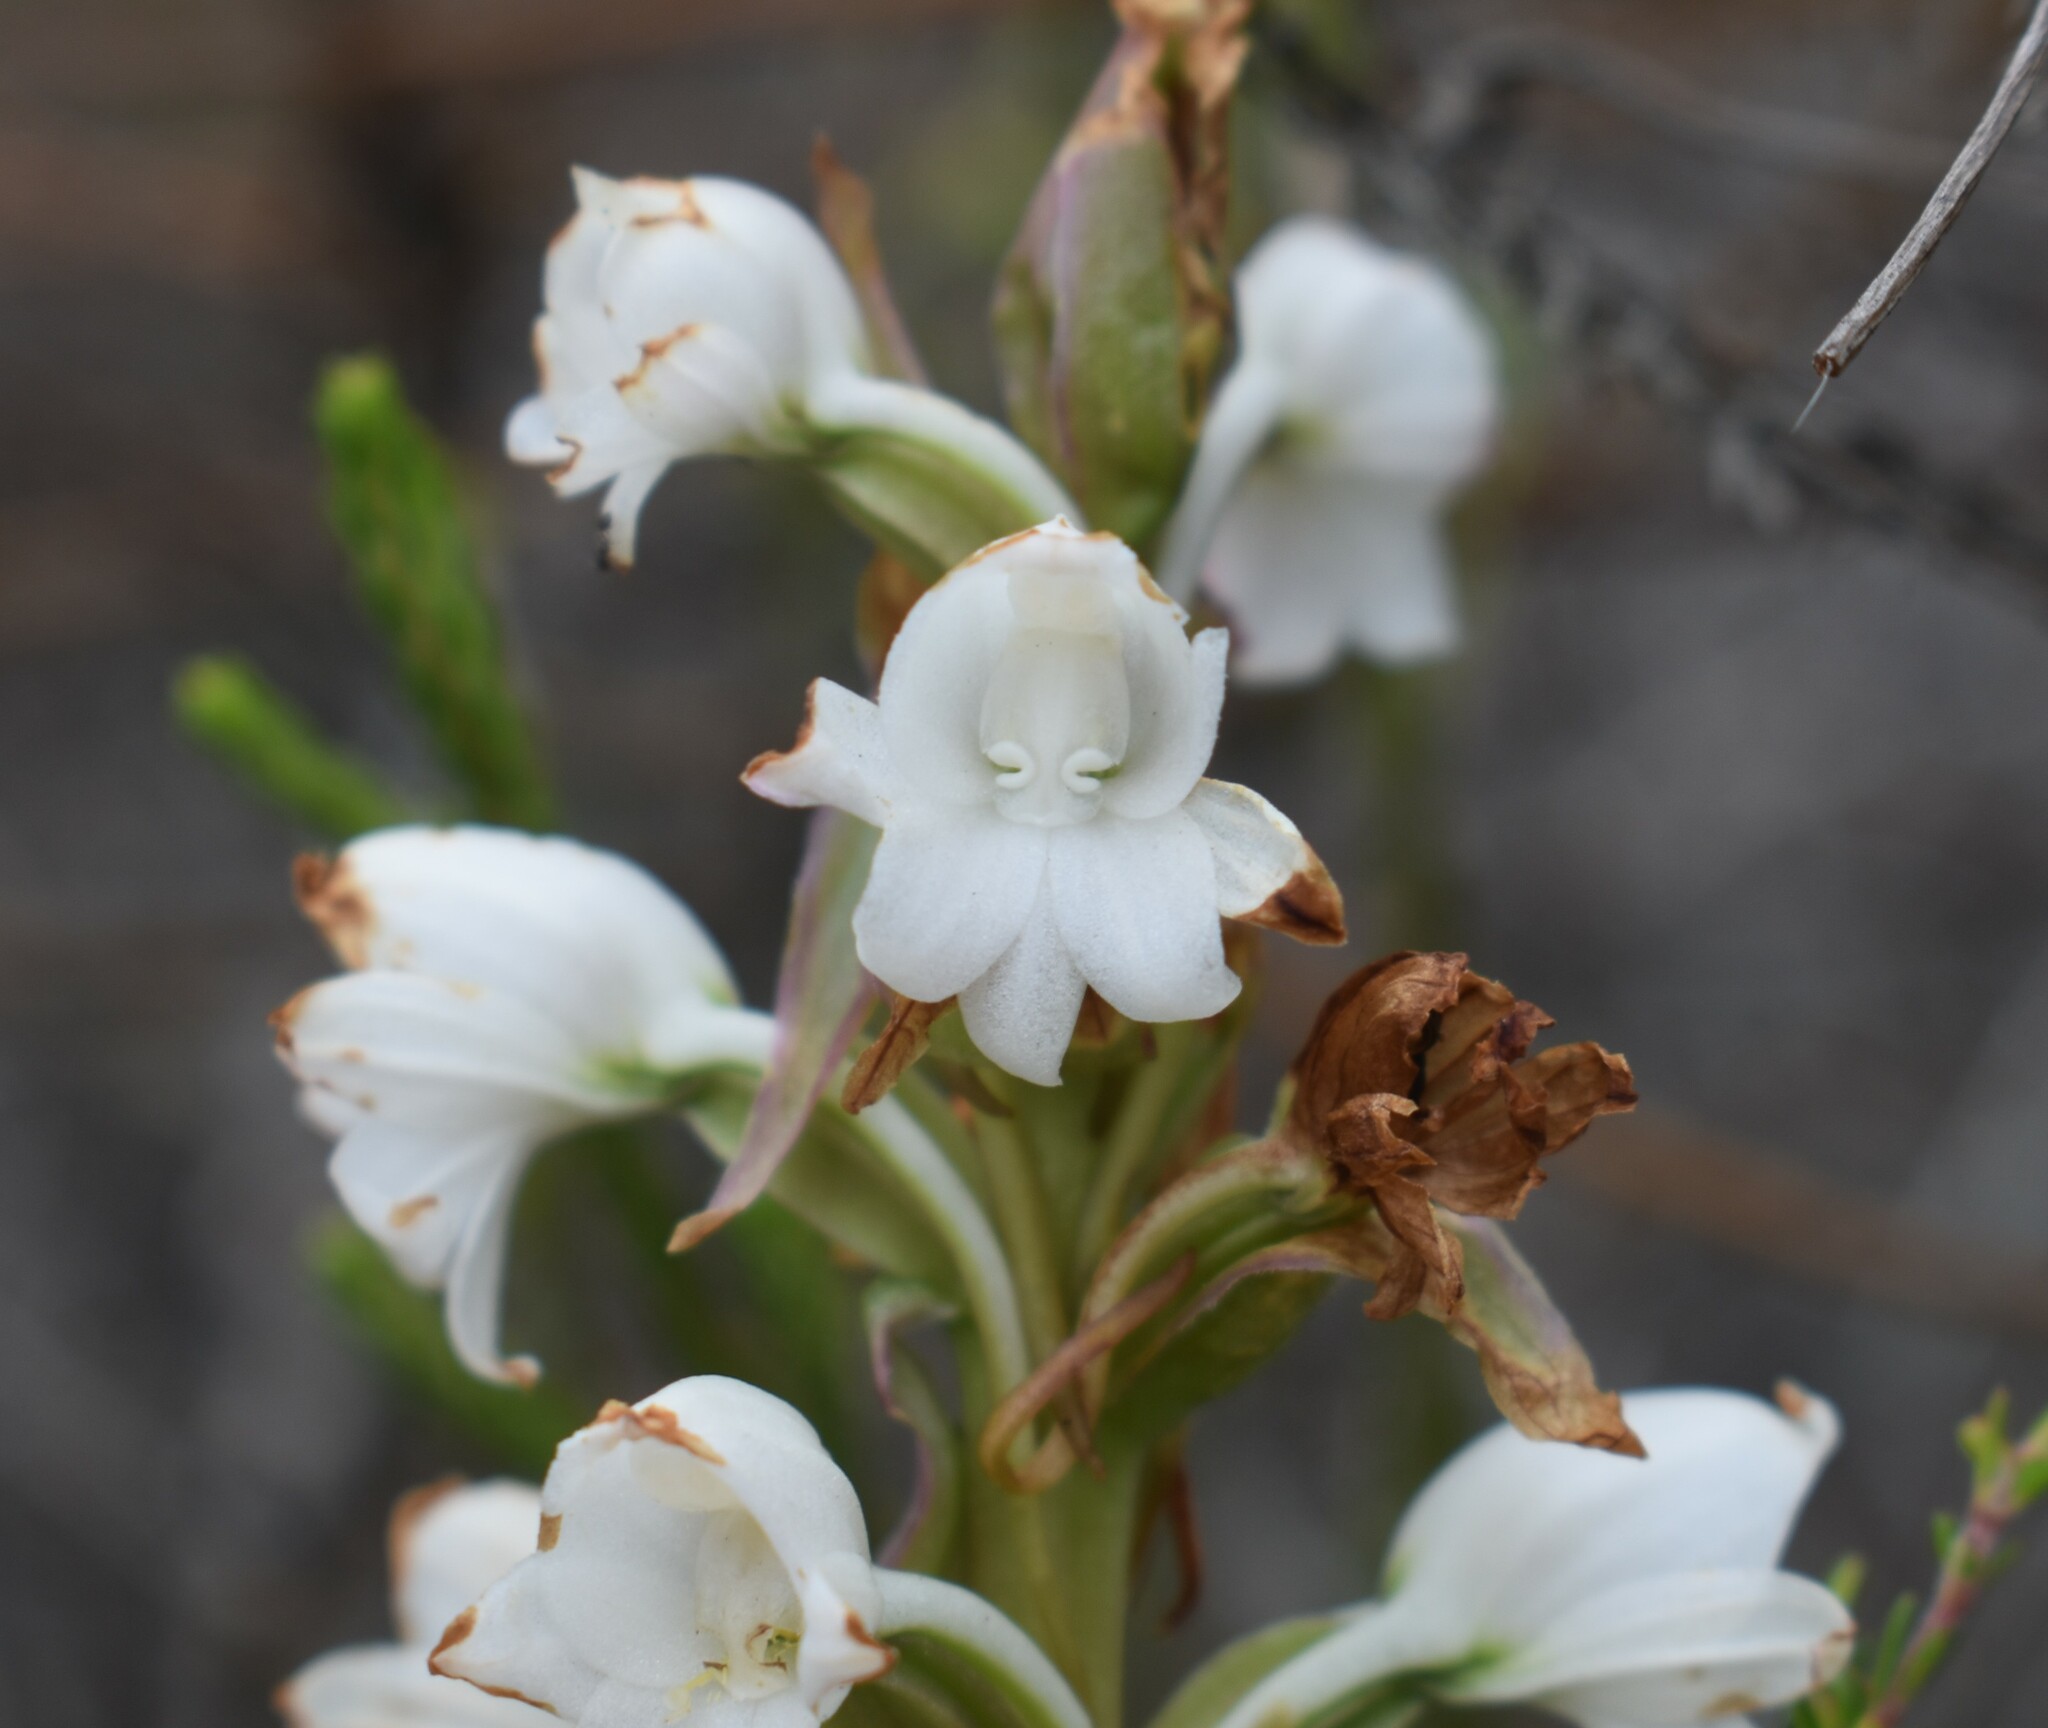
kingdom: Plantae
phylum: Tracheophyta
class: Liliopsida
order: Asparagales
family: Orchidaceae
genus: Satyrium
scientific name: Satyrium acuminatum
